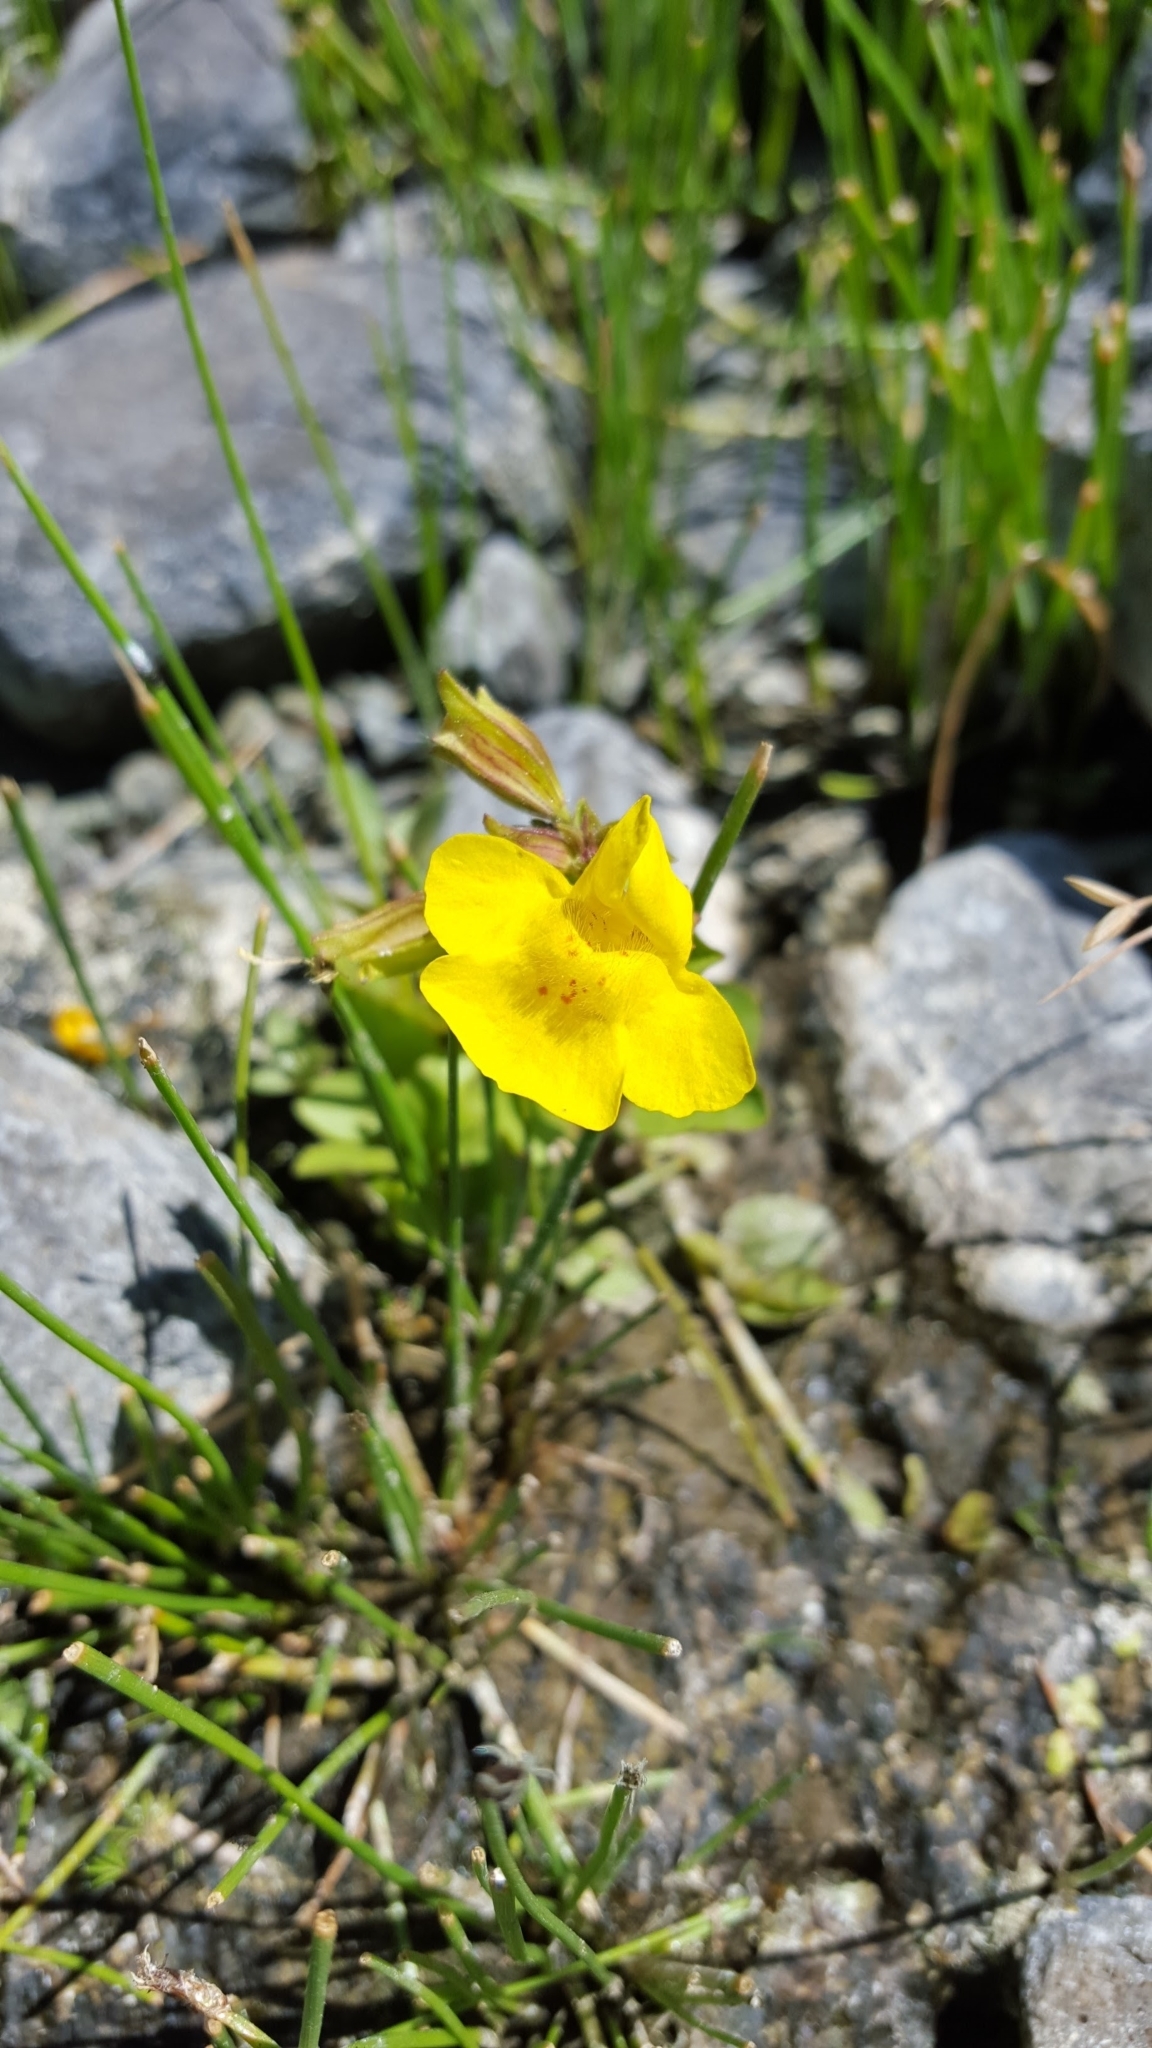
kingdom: Plantae
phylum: Tracheophyta
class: Magnoliopsida
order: Lamiales
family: Phrymaceae
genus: Erythranthe
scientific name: Erythranthe guttata
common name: Monkeyflower
